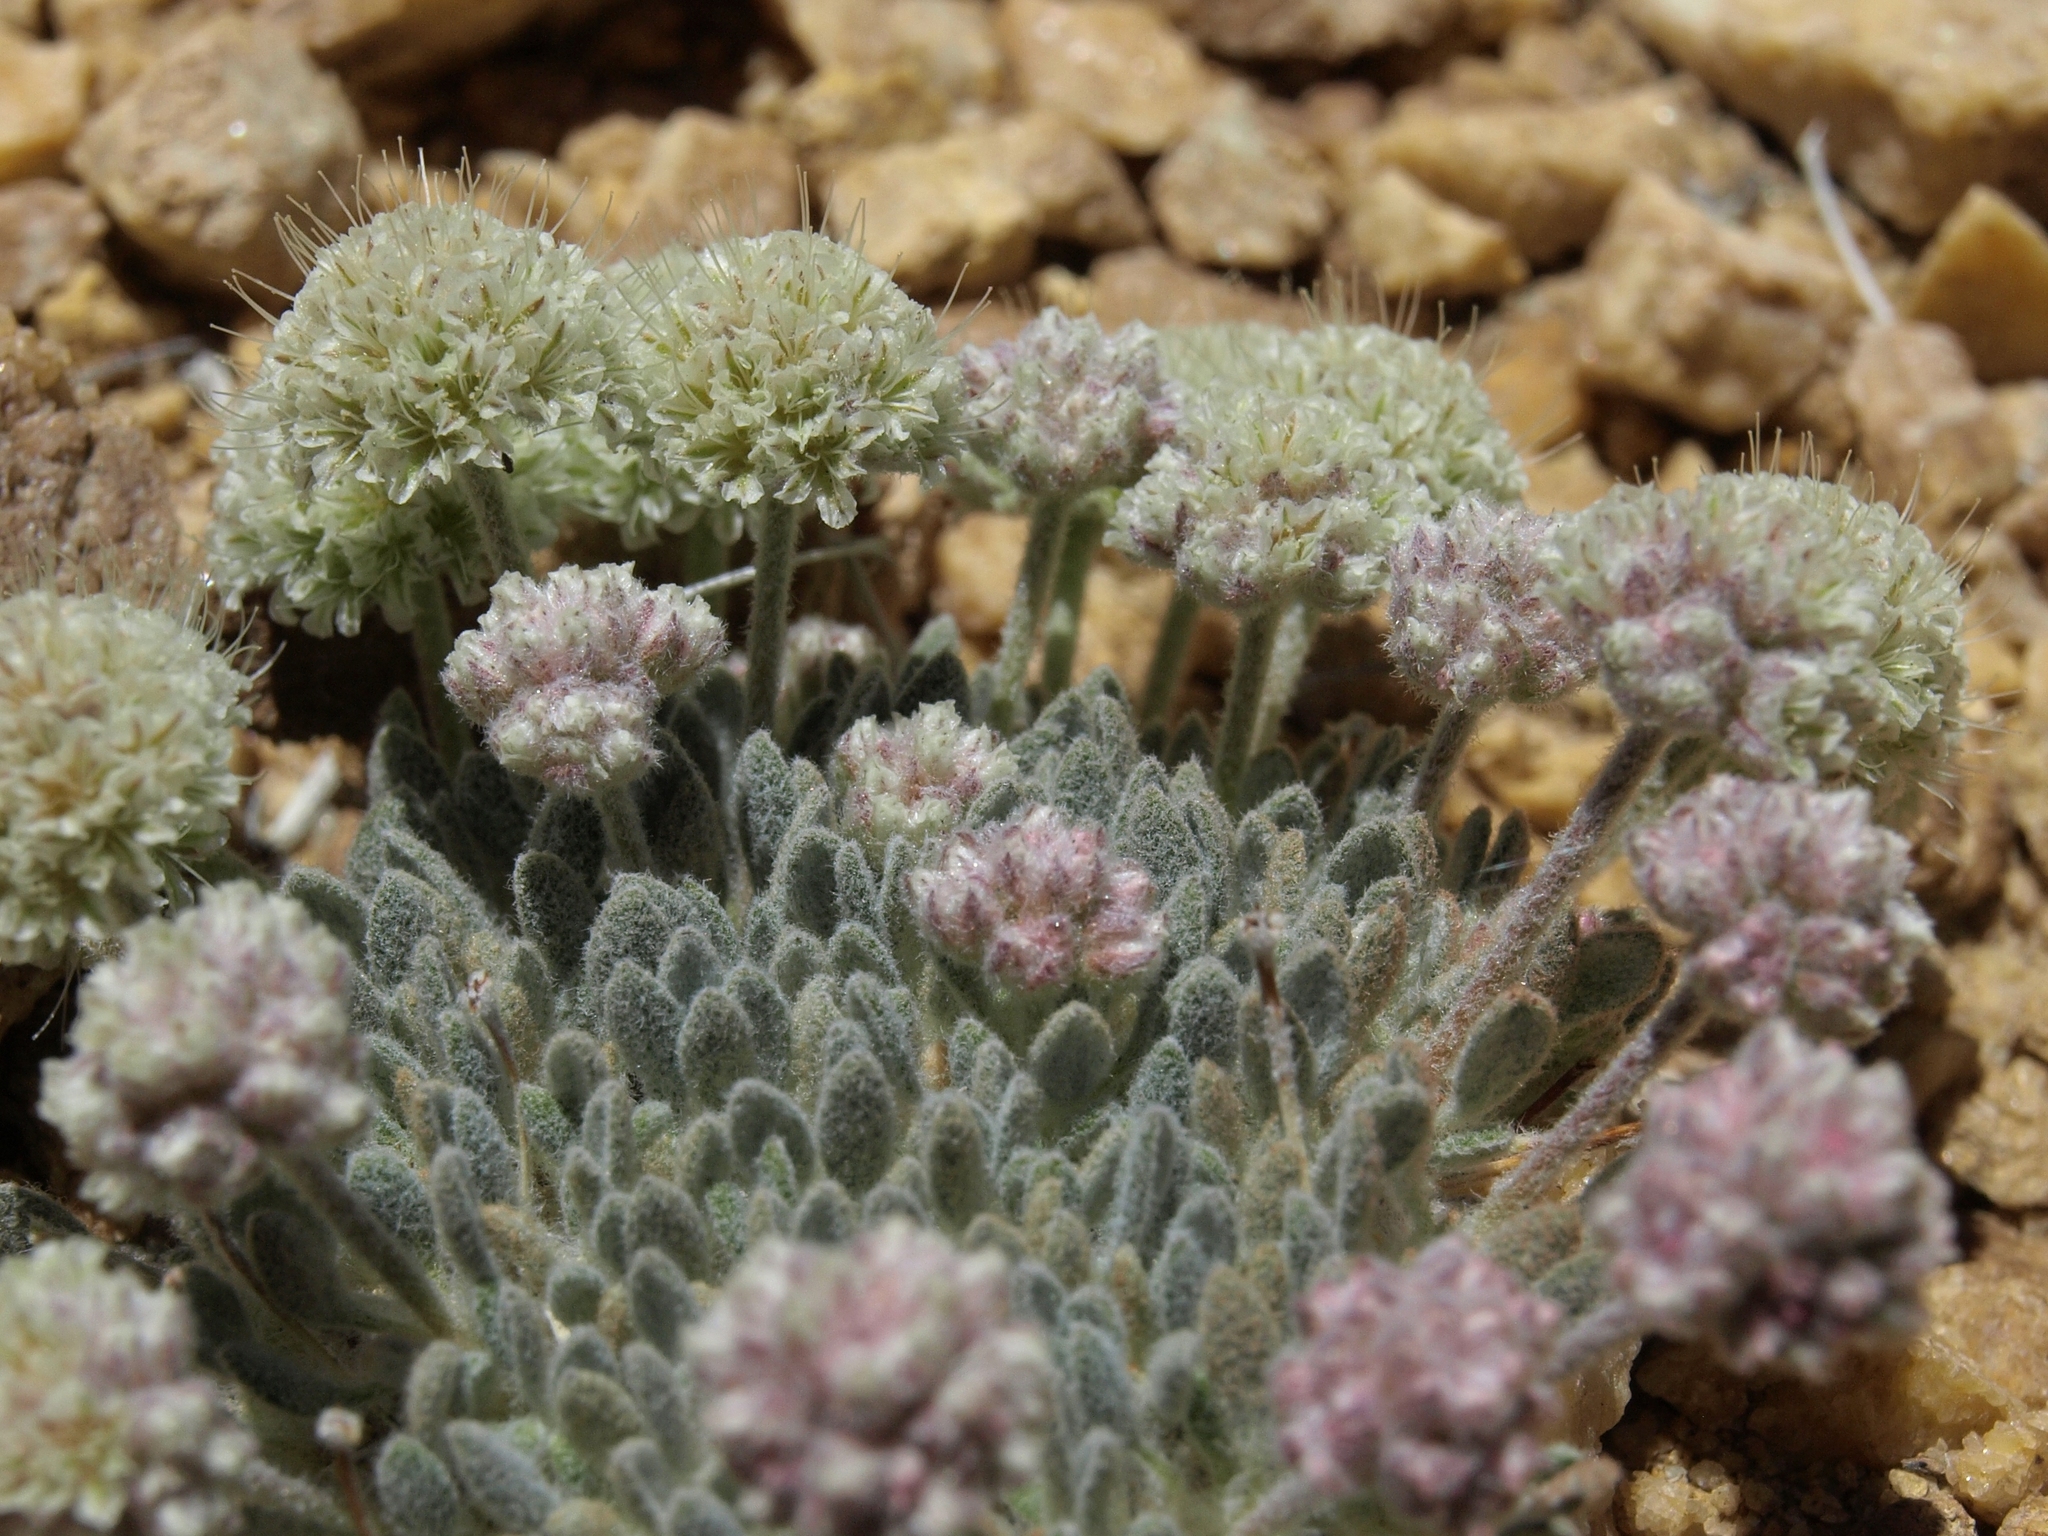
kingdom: Plantae
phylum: Tracheophyta
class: Magnoliopsida
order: Caryophyllales
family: Polygonaceae
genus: Eriogonum
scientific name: Eriogonum shockleyi
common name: Shockley's wild buckwheat
